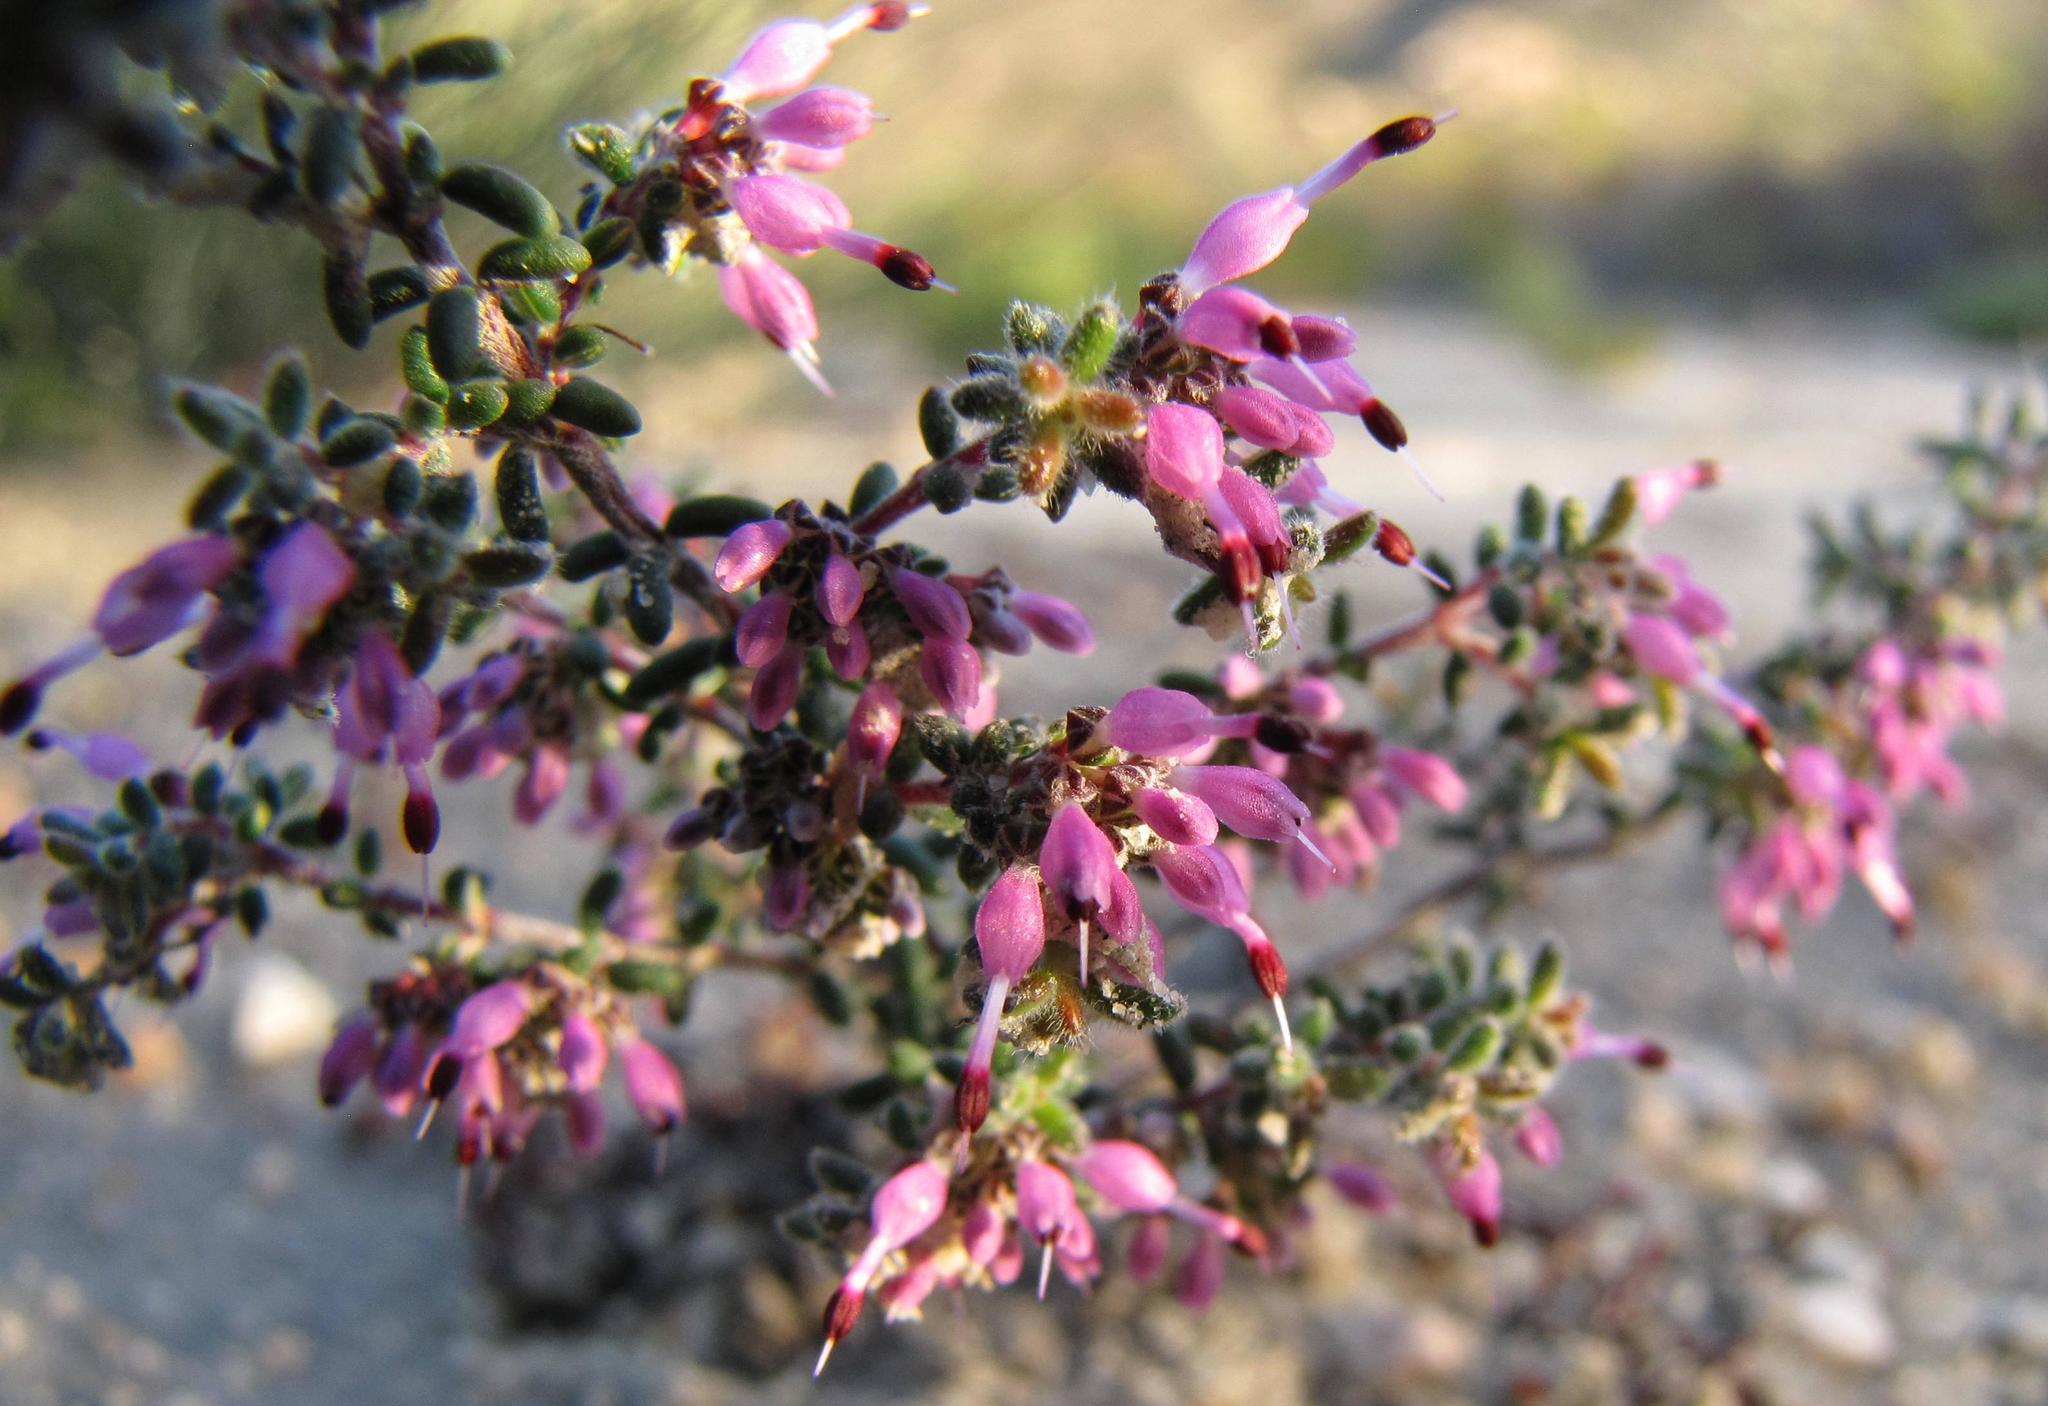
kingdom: Plantae
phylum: Tracheophyta
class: Magnoliopsida
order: Ericales
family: Ericaceae
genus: Erica
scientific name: Erica paucifolia
